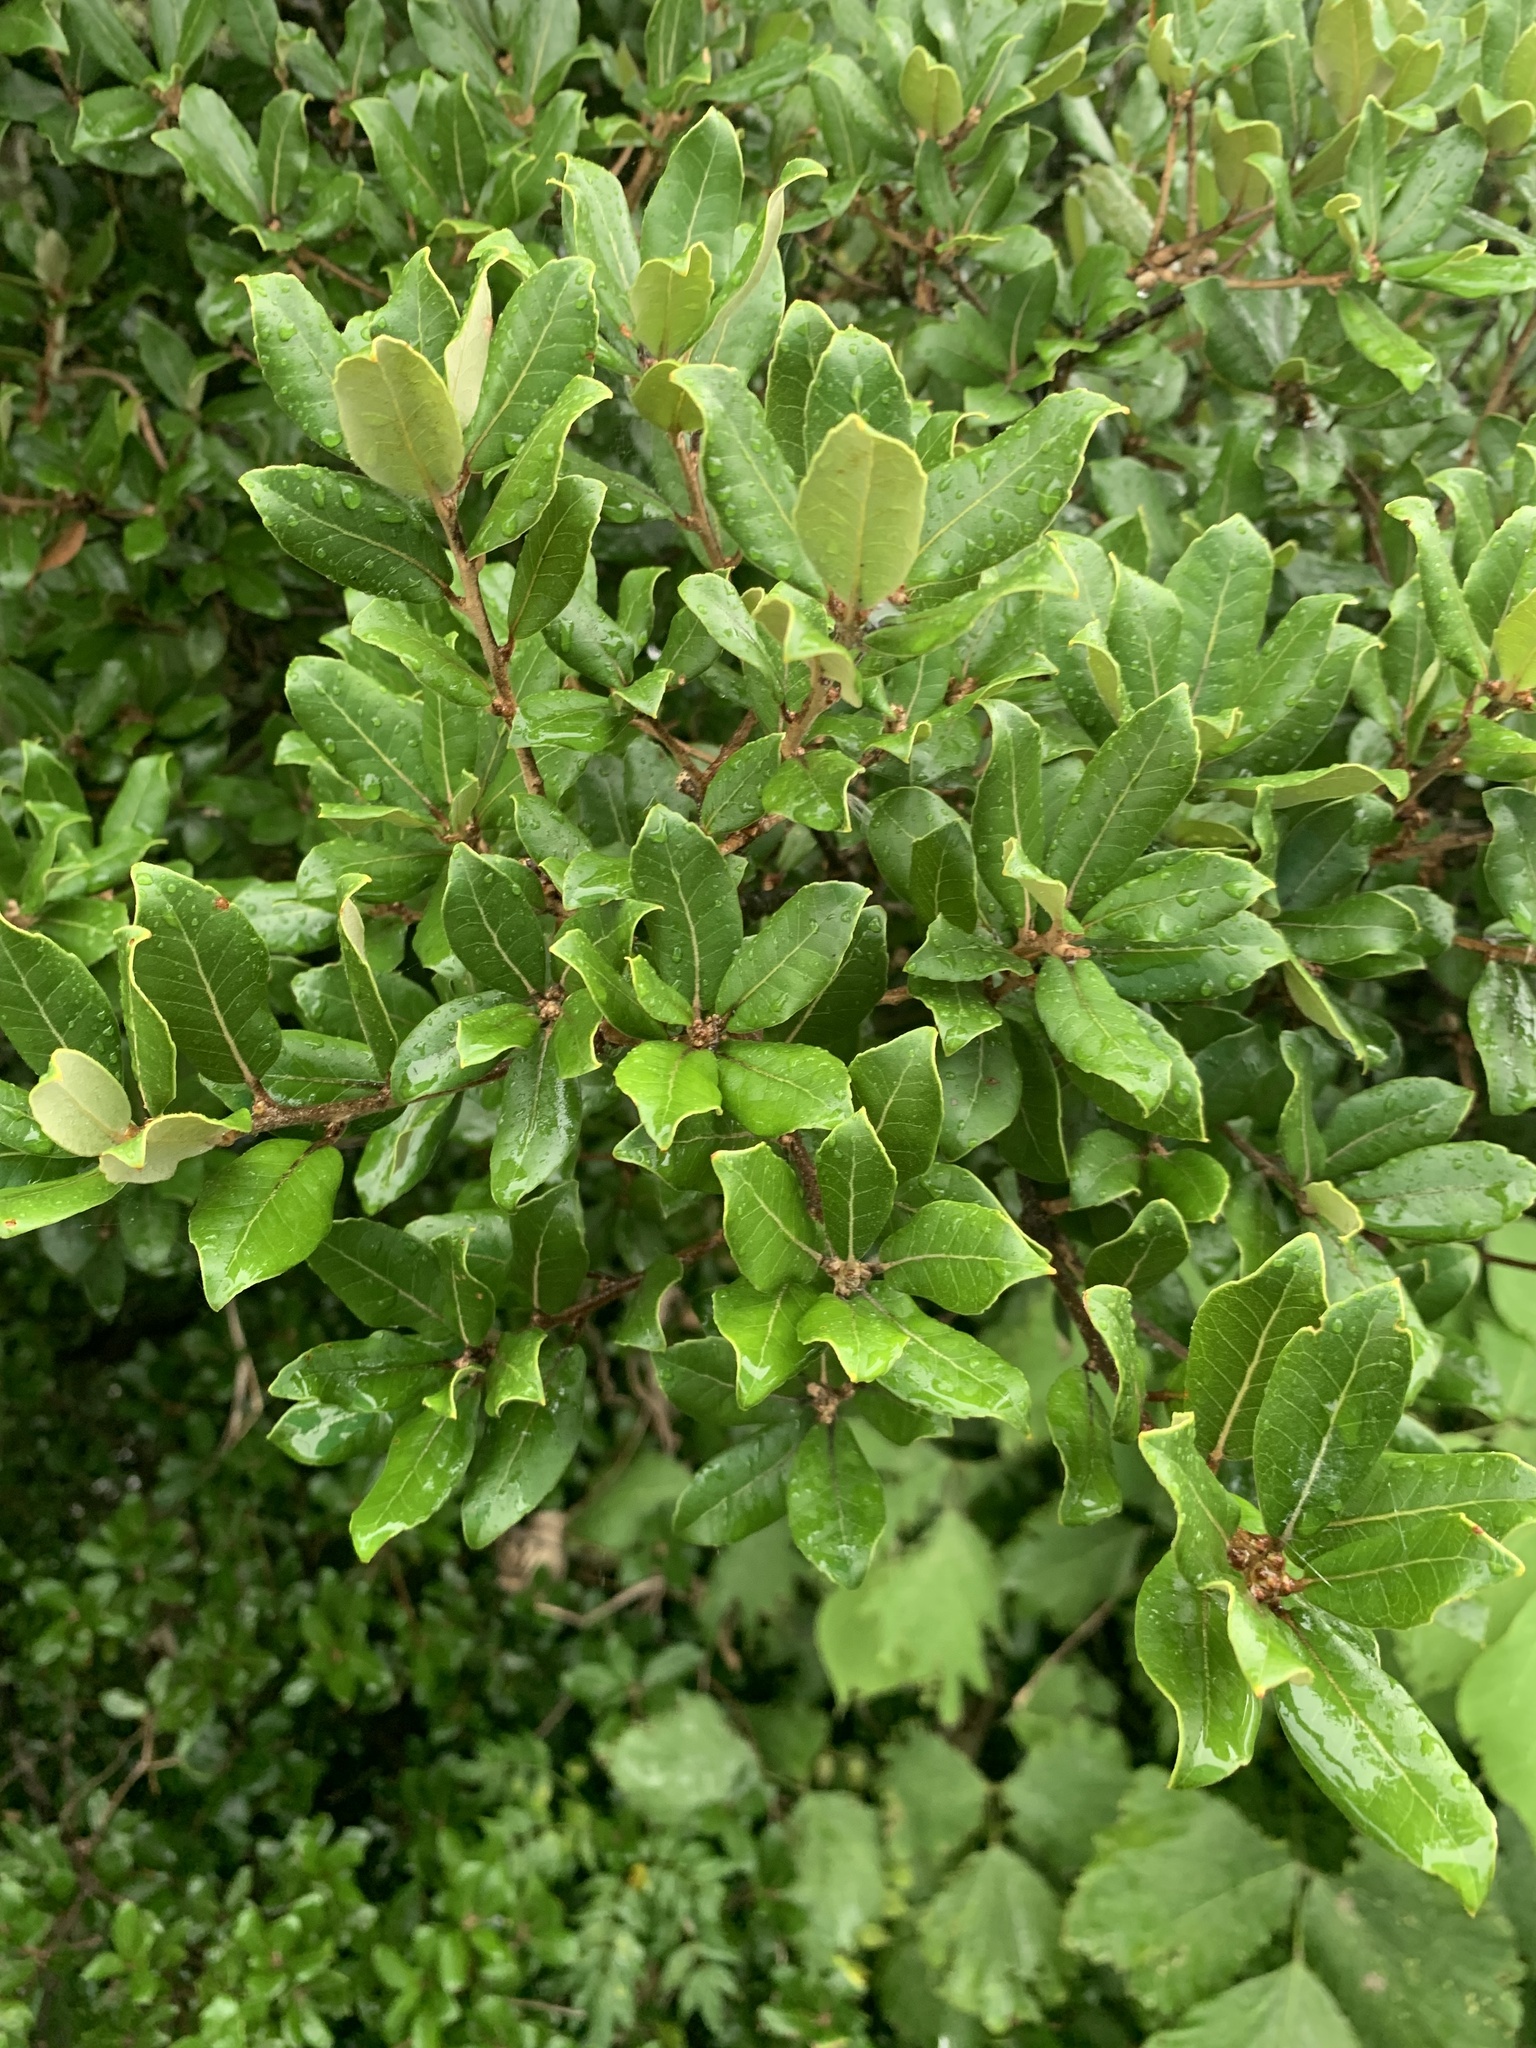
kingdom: Plantae
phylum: Tracheophyta
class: Magnoliopsida
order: Fagales
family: Fagaceae
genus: Quercus
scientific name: Quercus phillyreoides
